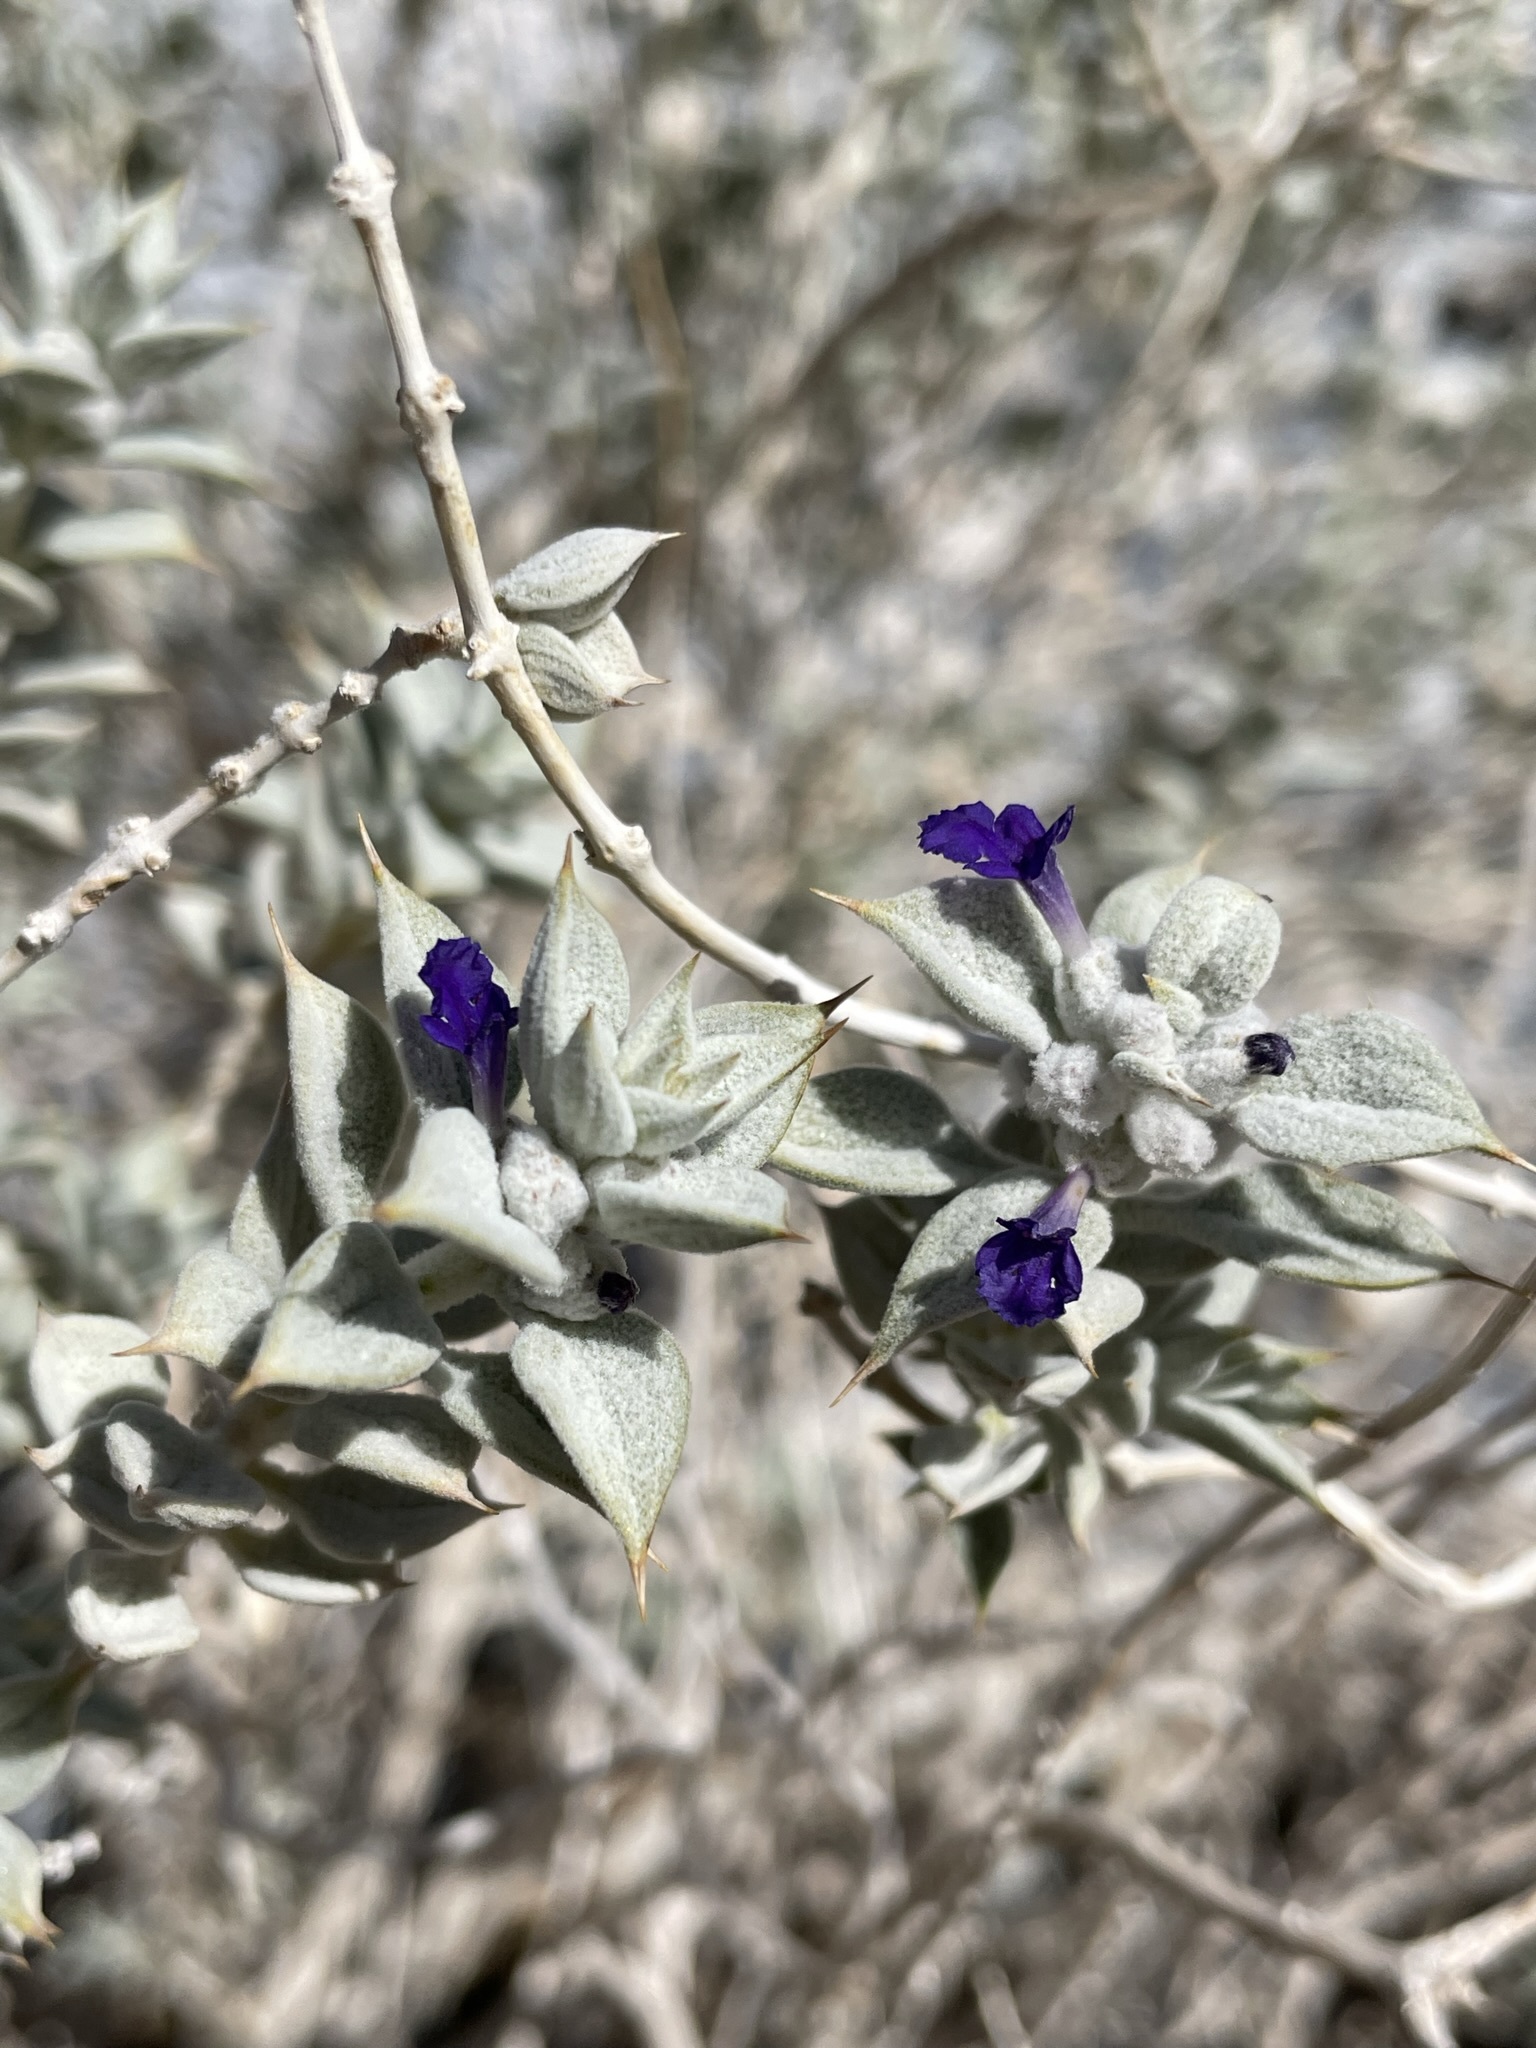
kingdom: Plantae
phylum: Tracheophyta
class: Magnoliopsida
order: Lamiales
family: Lamiaceae
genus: Salvia
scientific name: Salvia funerea
